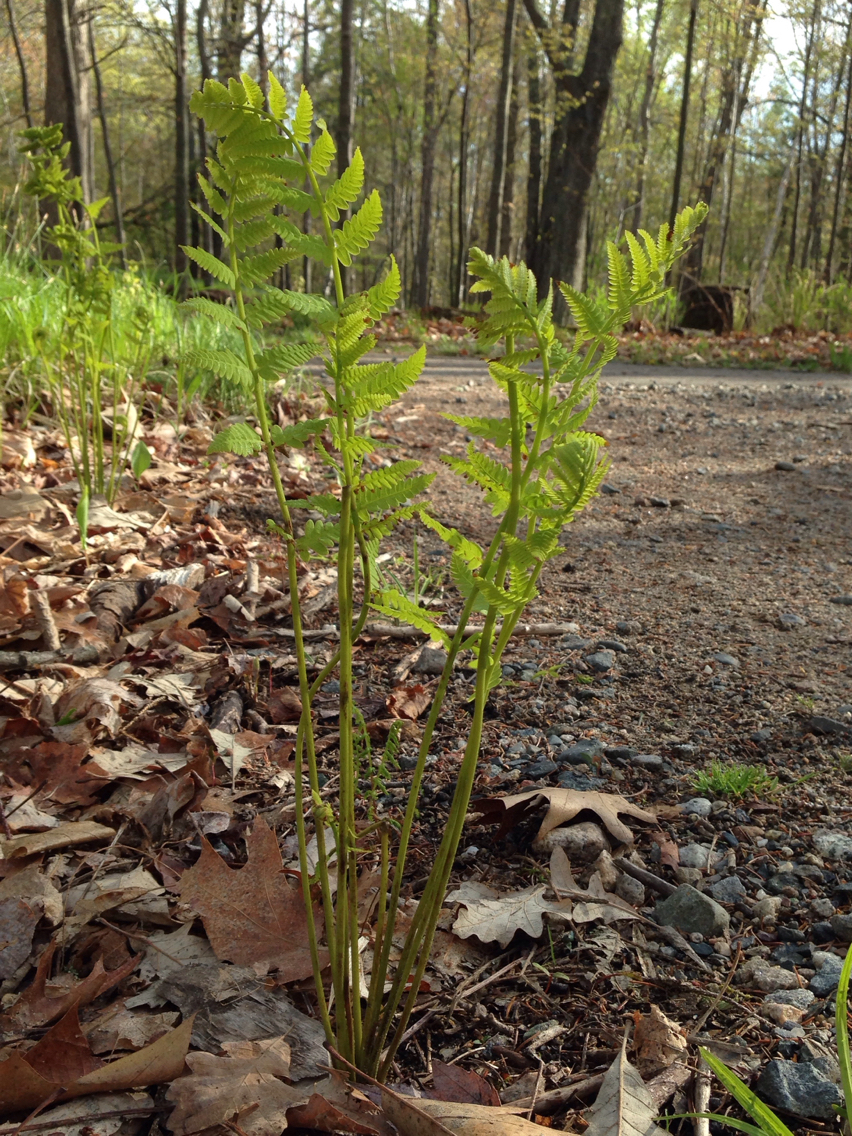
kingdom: Plantae
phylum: Tracheophyta
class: Polypodiopsida
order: Osmundales
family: Osmundaceae
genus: Claytosmunda
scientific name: Claytosmunda claytoniana
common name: Clayton's fern
